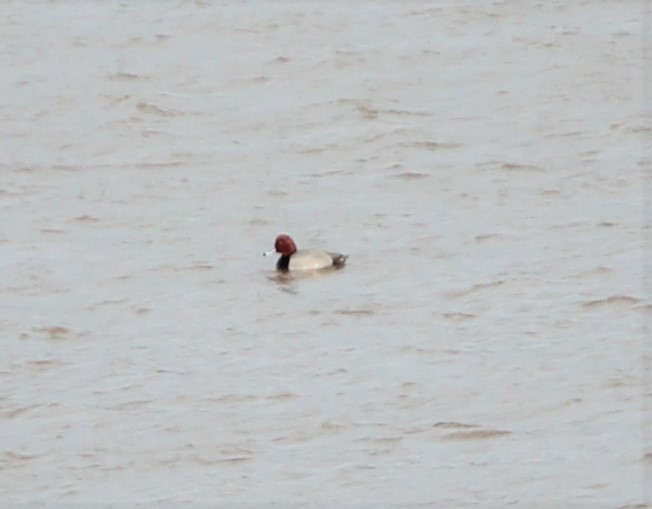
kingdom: Animalia
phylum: Chordata
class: Aves
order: Anseriformes
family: Anatidae
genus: Aythya
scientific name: Aythya americana
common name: Redhead
